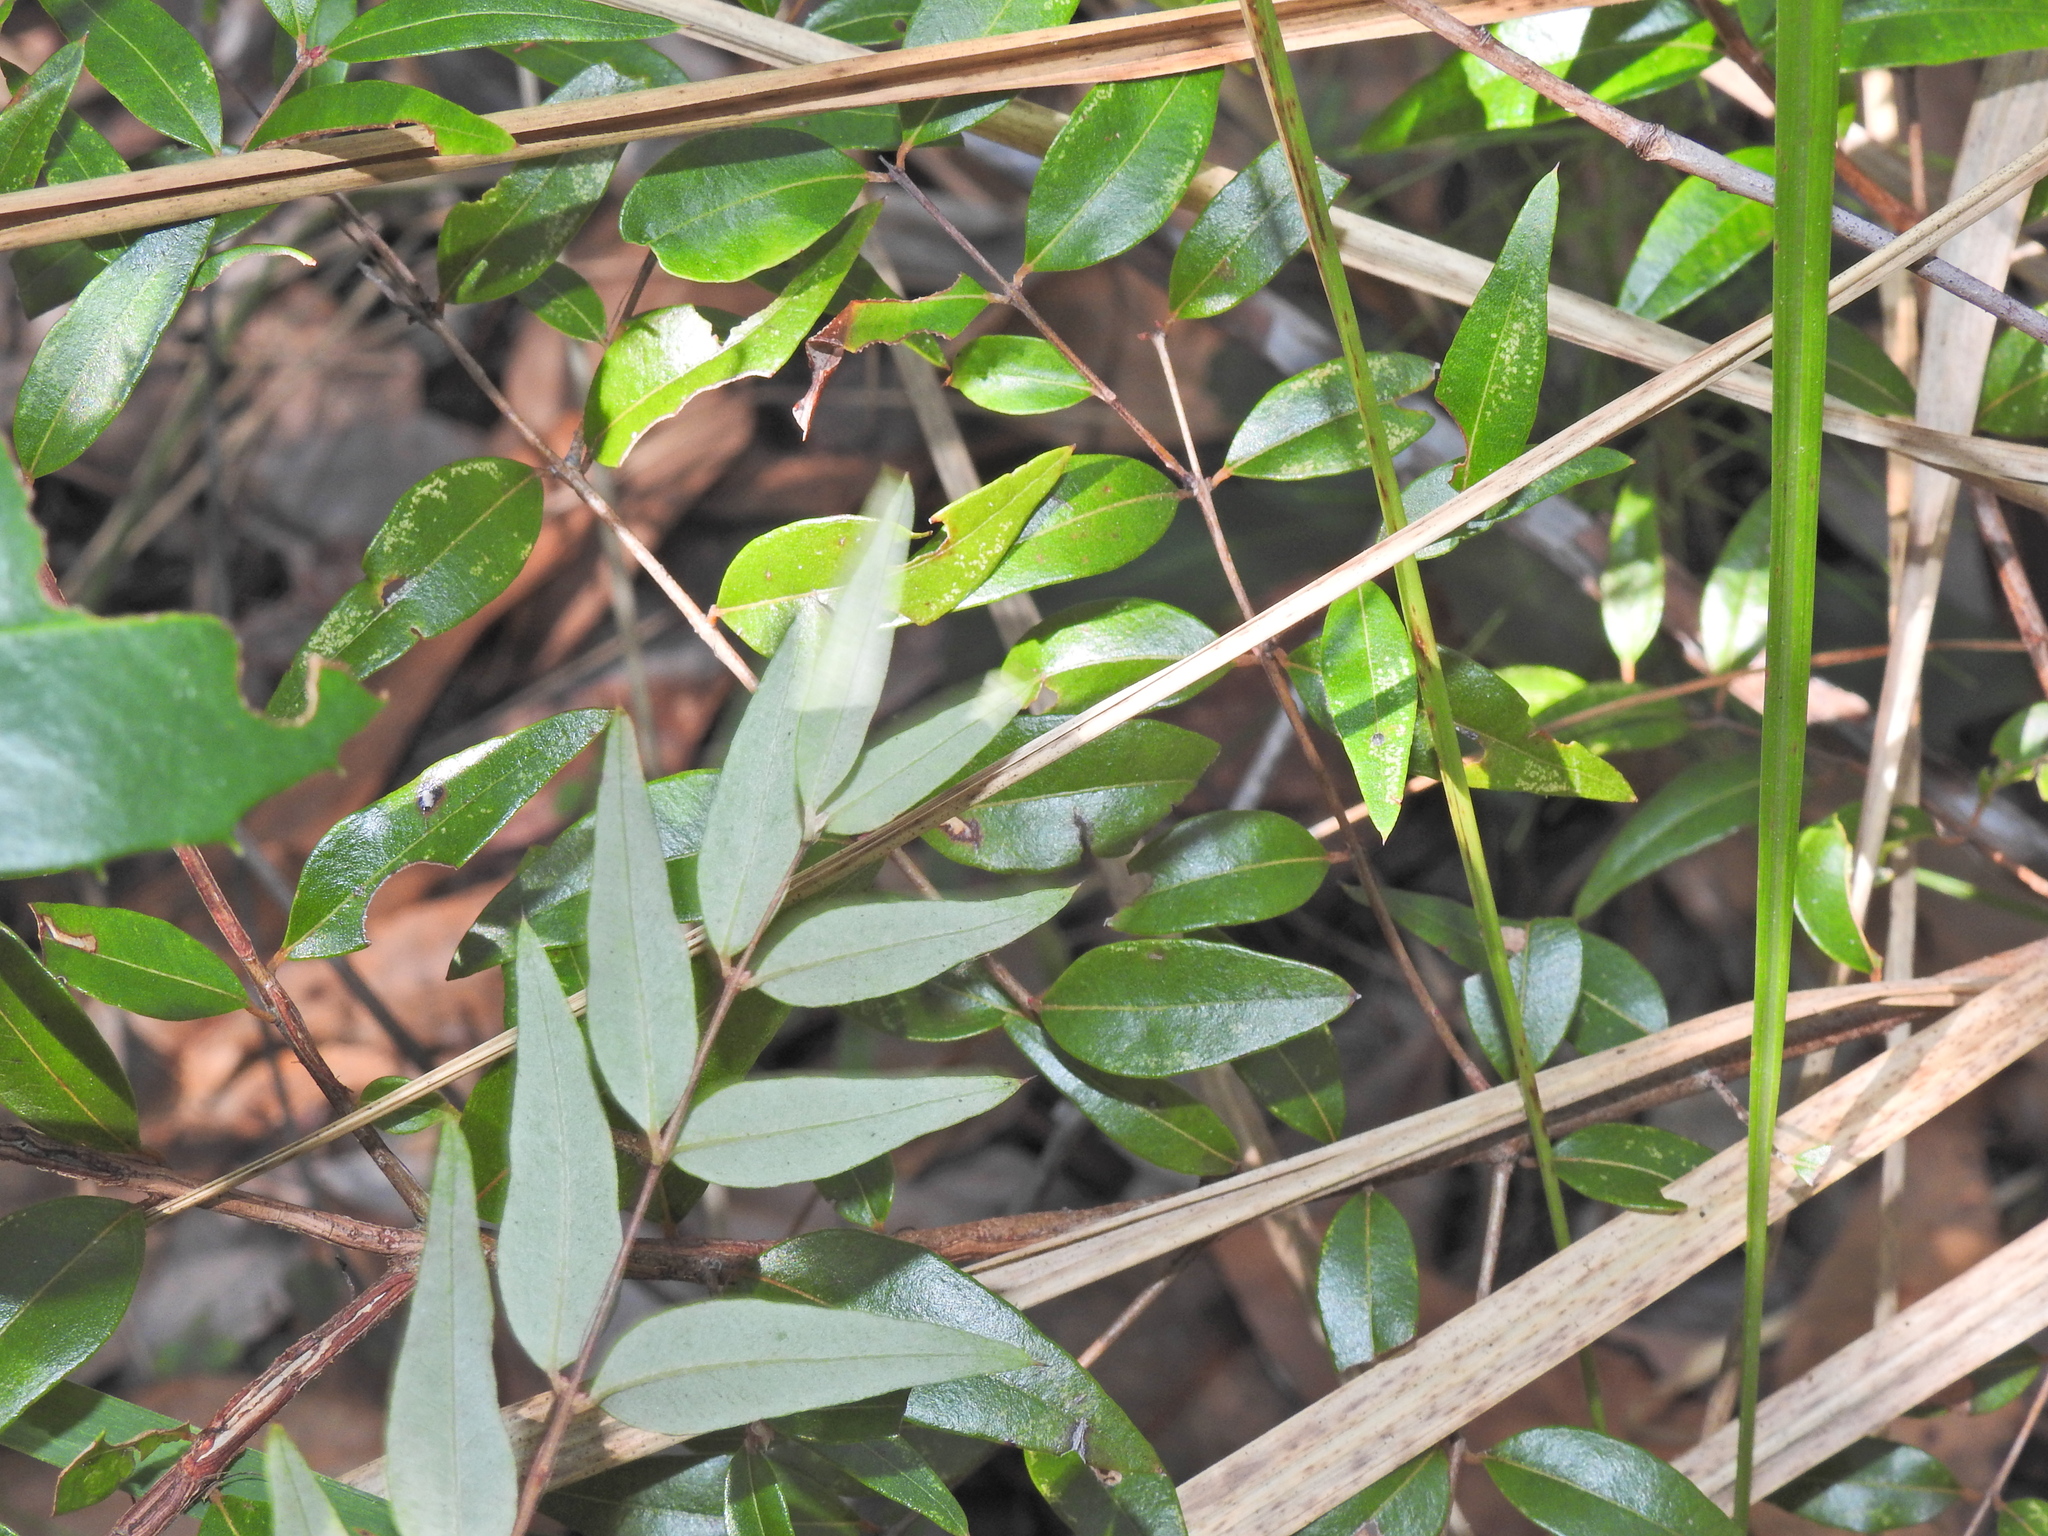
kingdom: Plantae
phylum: Tracheophyta
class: Magnoliopsida
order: Myrtales
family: Myrtaceae
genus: Austromyrtus
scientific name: Austromyrtus dulcis
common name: Migden-berry
